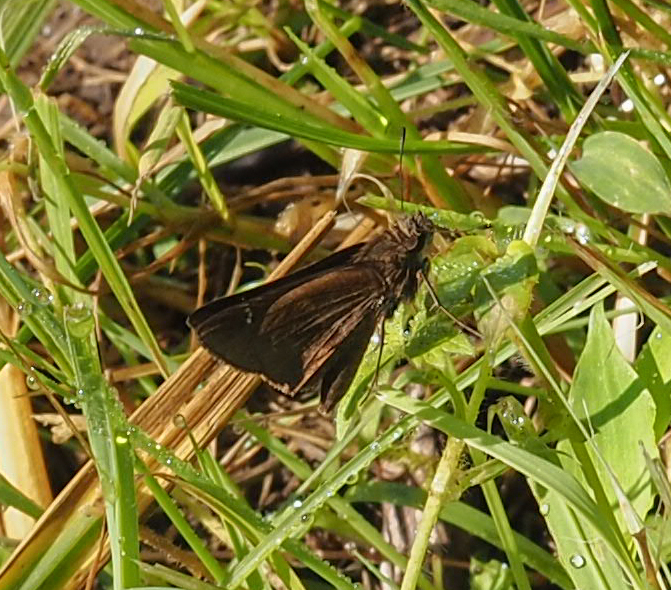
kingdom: Animalia
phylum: Arthropoda
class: Insecta
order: Lepidoptera
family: Hesperiidae
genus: Lerema
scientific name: Lerema accius
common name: Clouded skipper
